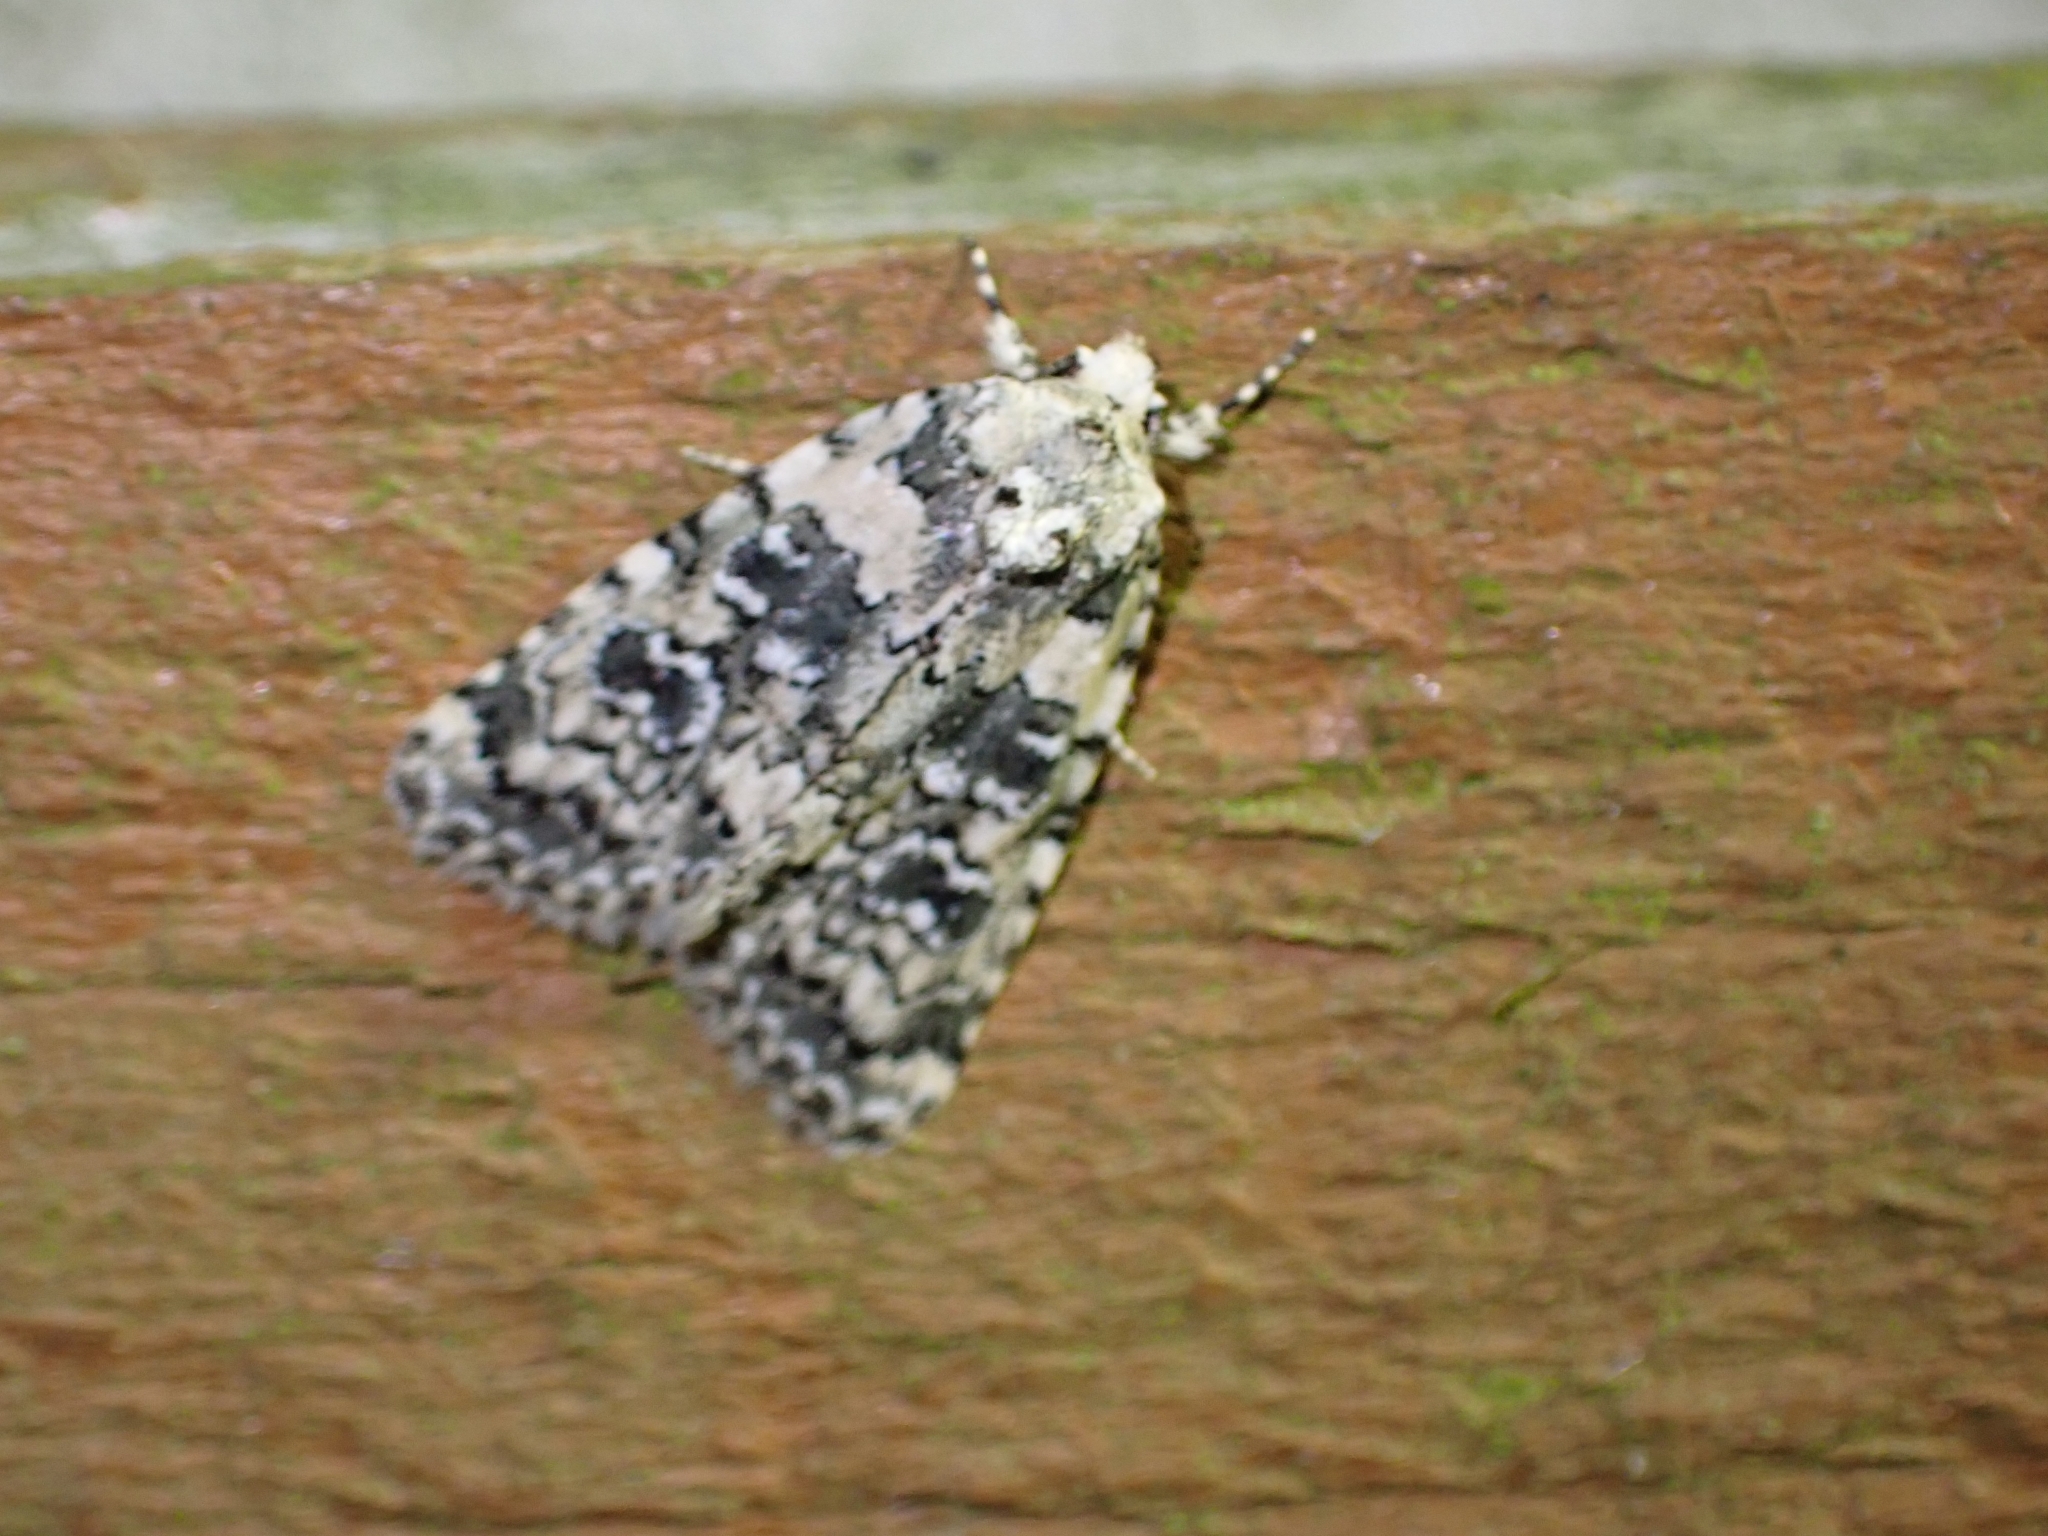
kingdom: Animalia
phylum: Arthropoda
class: Insecta
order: Lepidoptera
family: Noctuidae
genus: Bryophila
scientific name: Bryophila domestica
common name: Marbled beauty
